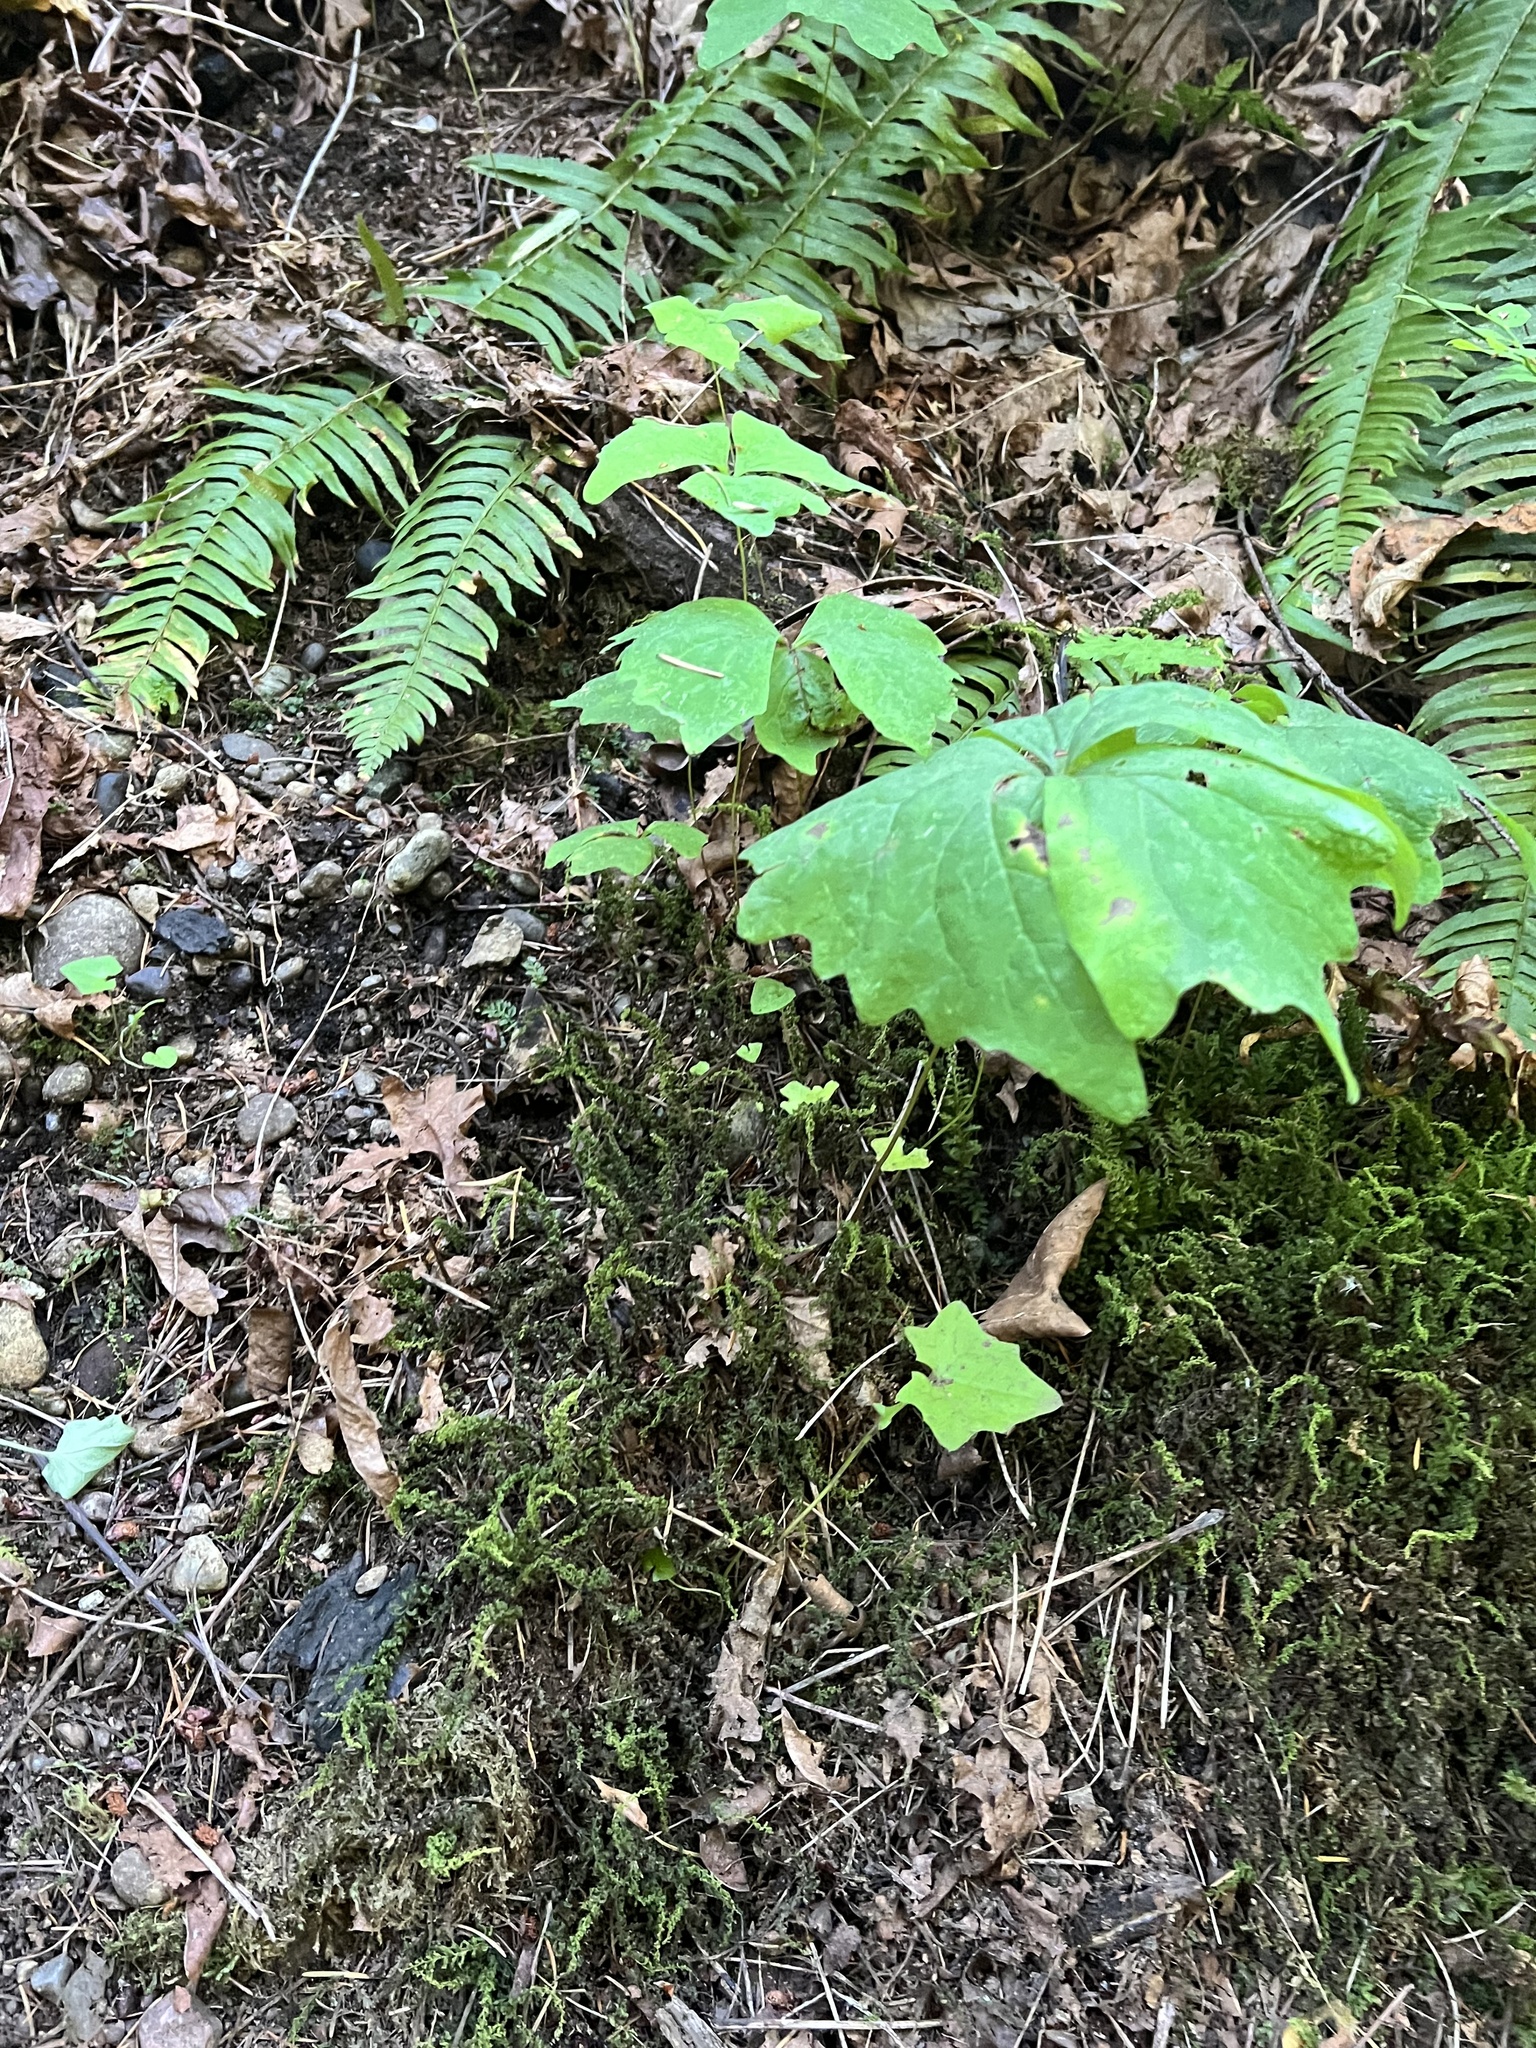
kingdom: Plantae
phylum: Tracheophyta
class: Magnoliopsida
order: Ranunculales
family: Berberidaceae
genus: Achlys
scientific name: Achlys triphylla
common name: Vanilla-leaf
